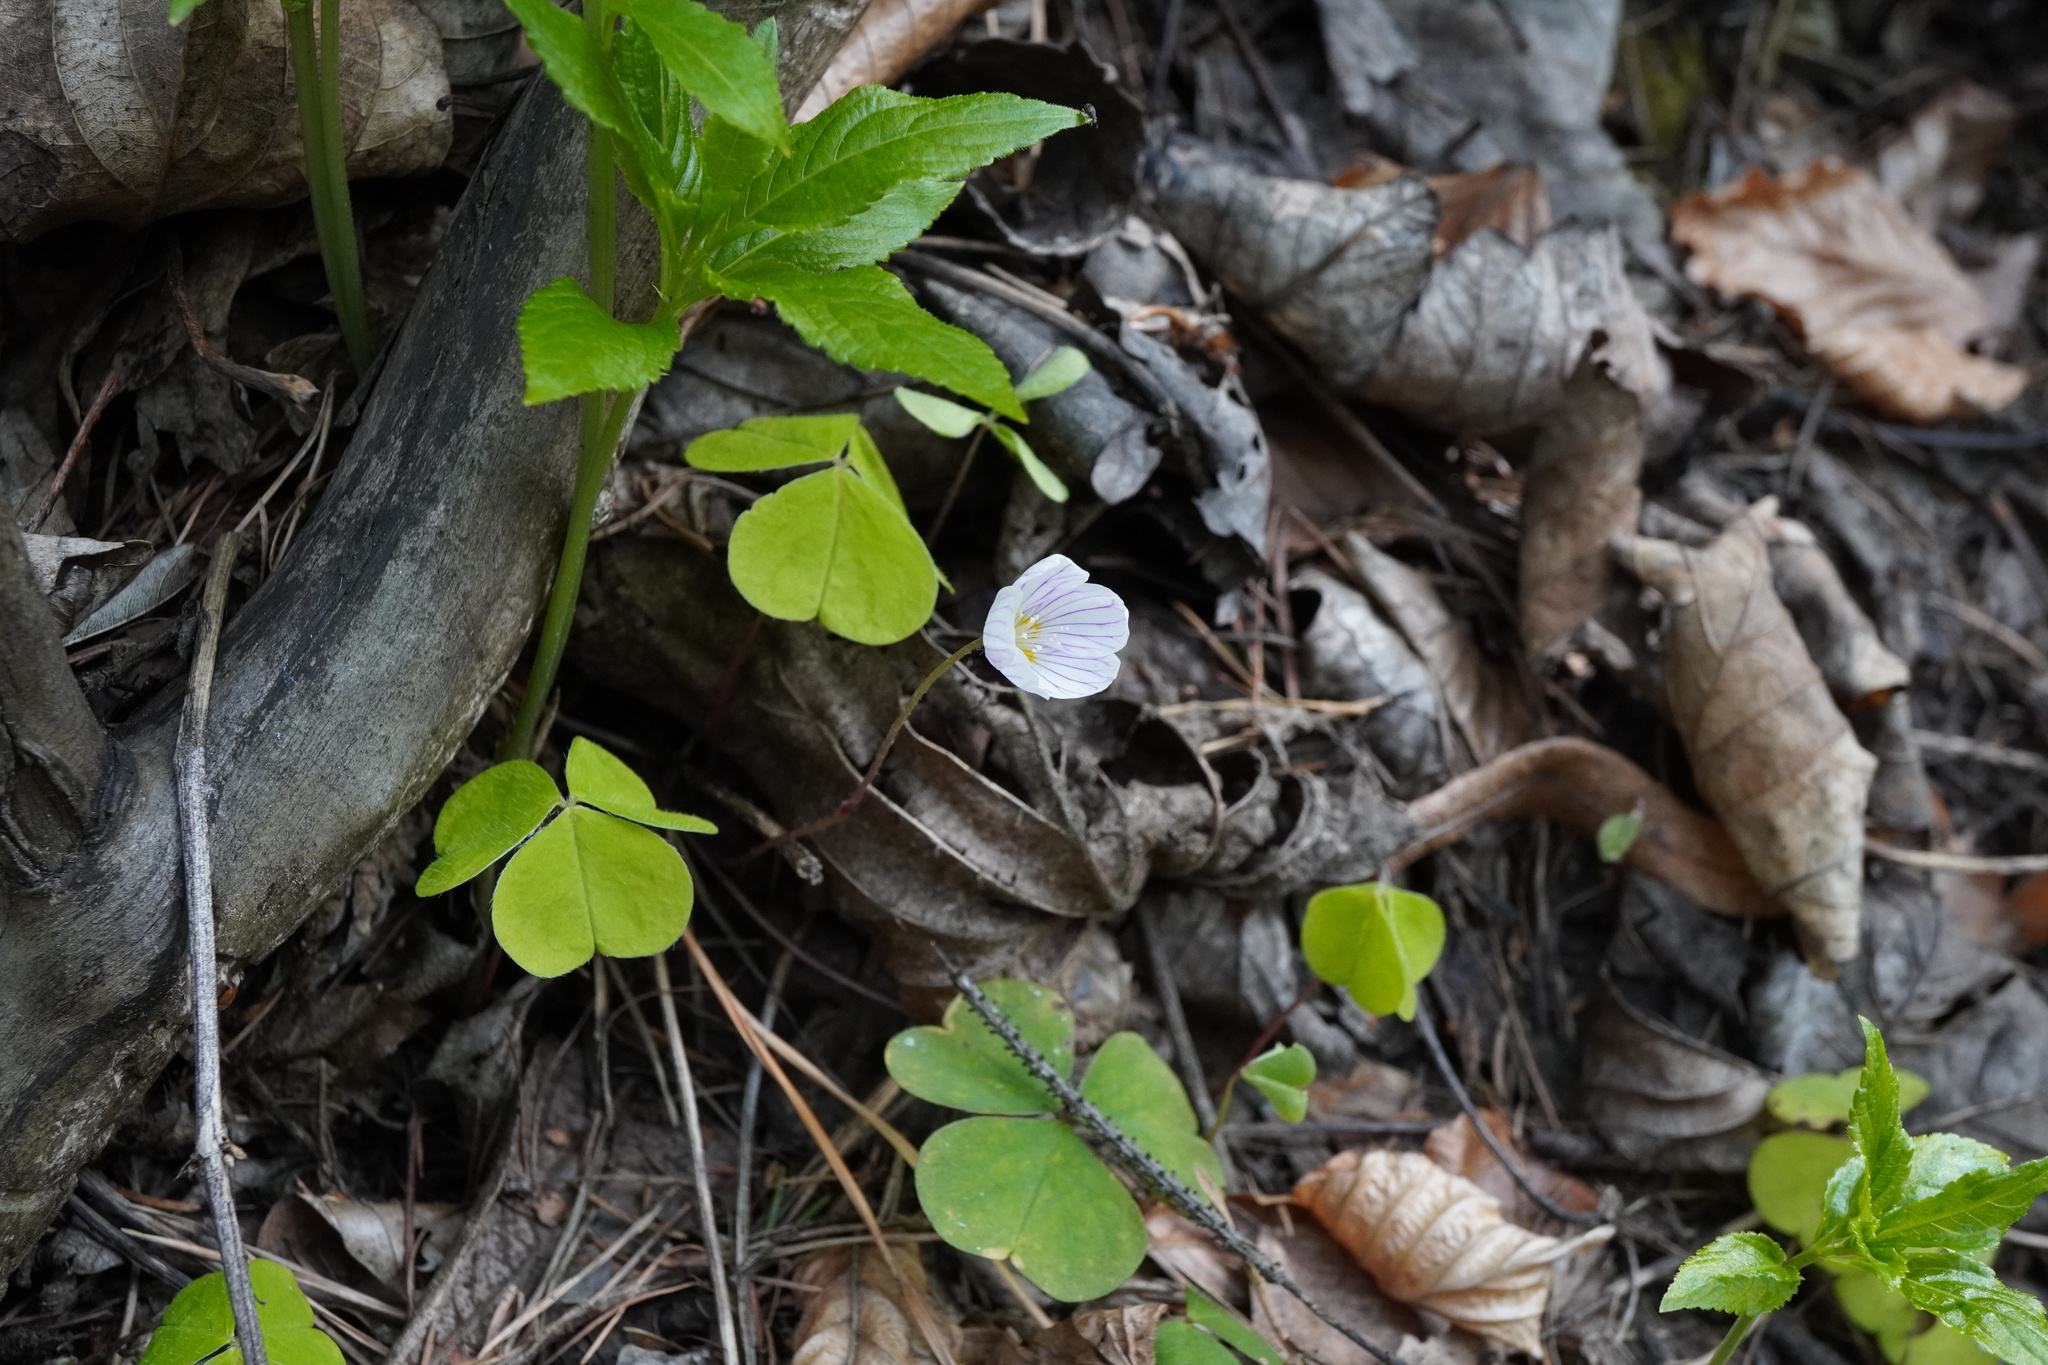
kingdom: Plantae
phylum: Tracheophyta
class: Magnoliopsida
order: Oxalidales
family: Oxalidaceae
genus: Oxalis
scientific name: Oxalis acetosella
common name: Wood-sorrel
